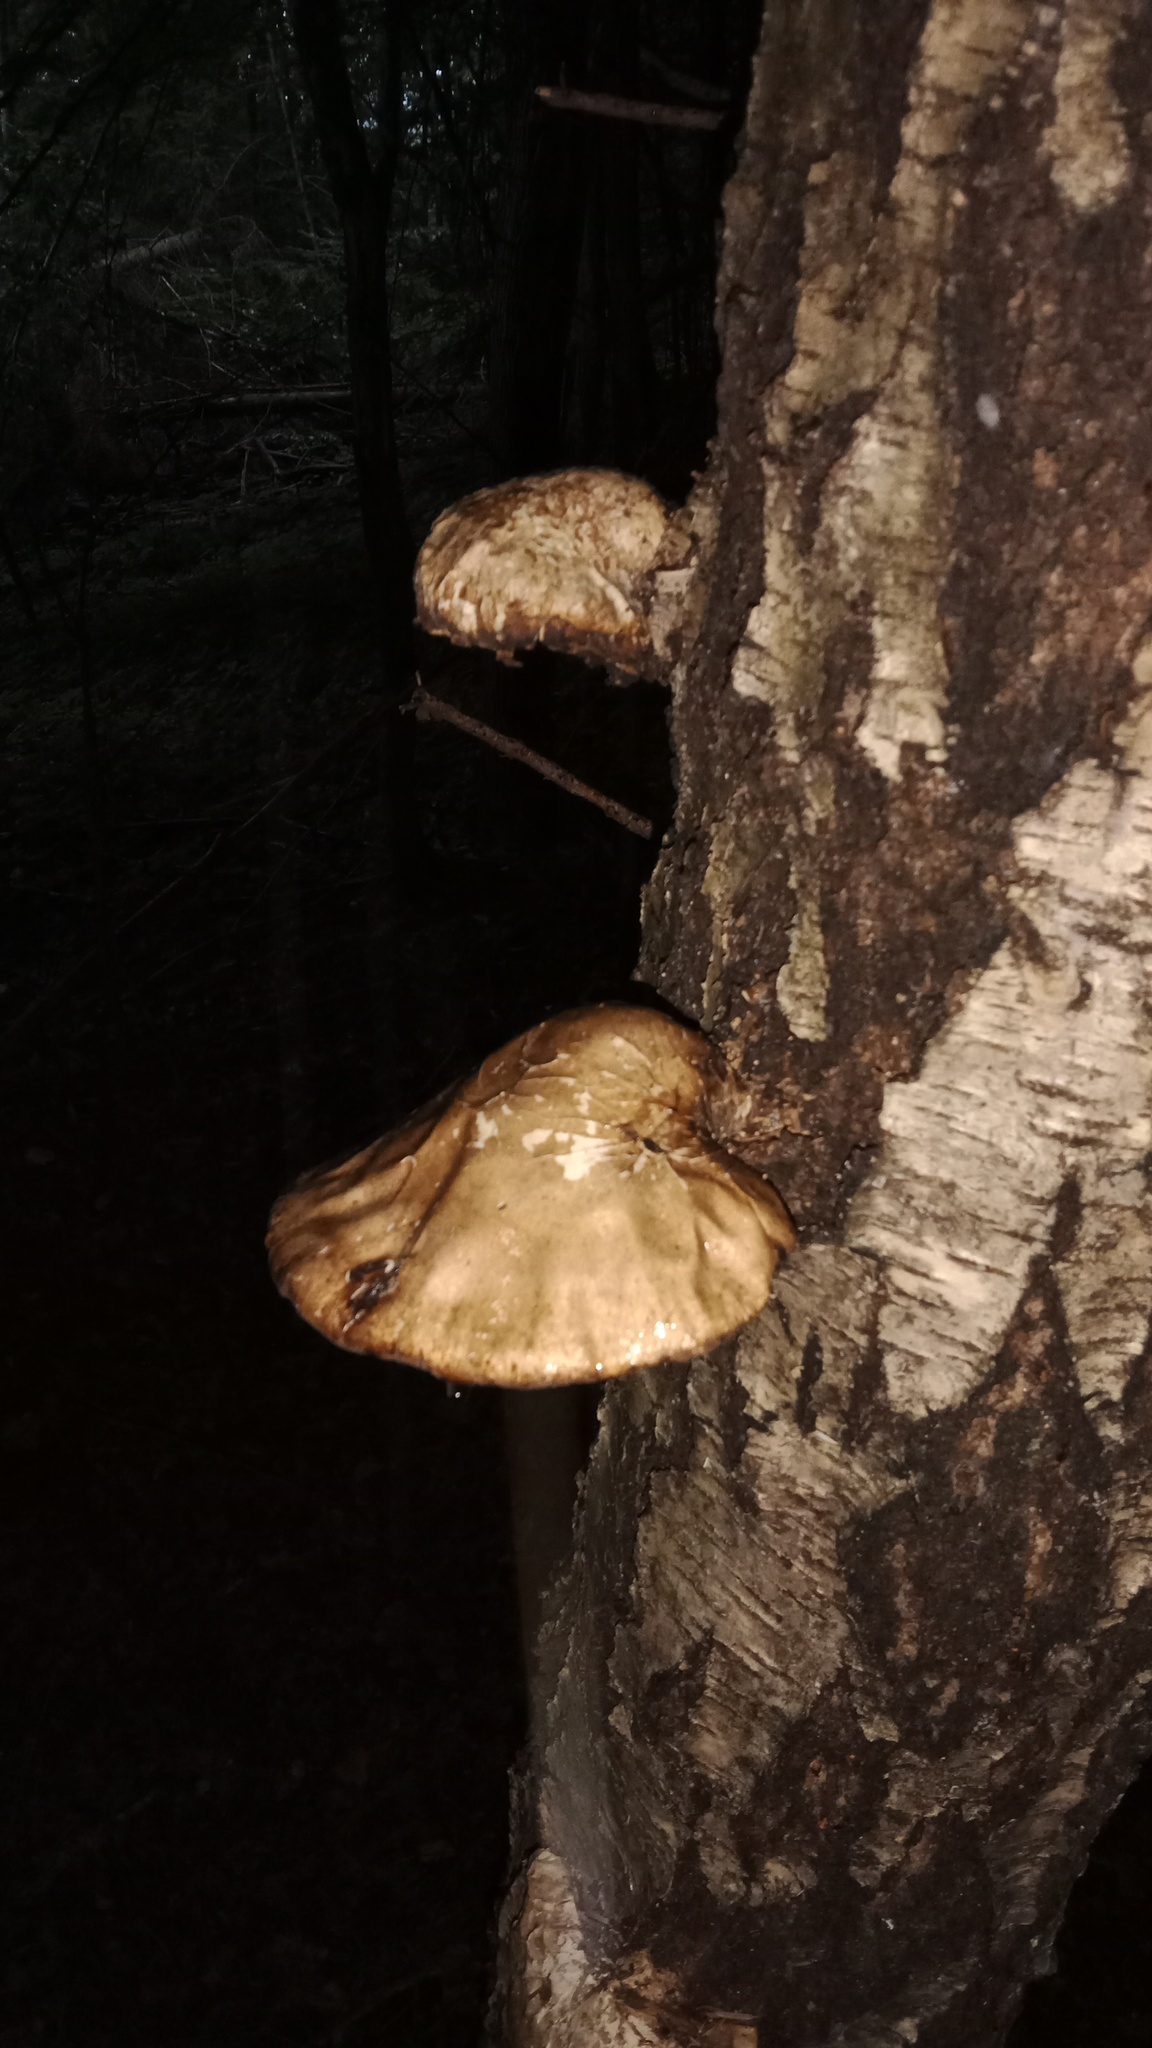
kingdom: Fungi
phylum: Basidiomycota
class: Agaricomycetes
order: Polyporales
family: Fomitopsidaceae
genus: Fomitopsis
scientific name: Fomitopsis betulina
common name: Birch polypore
